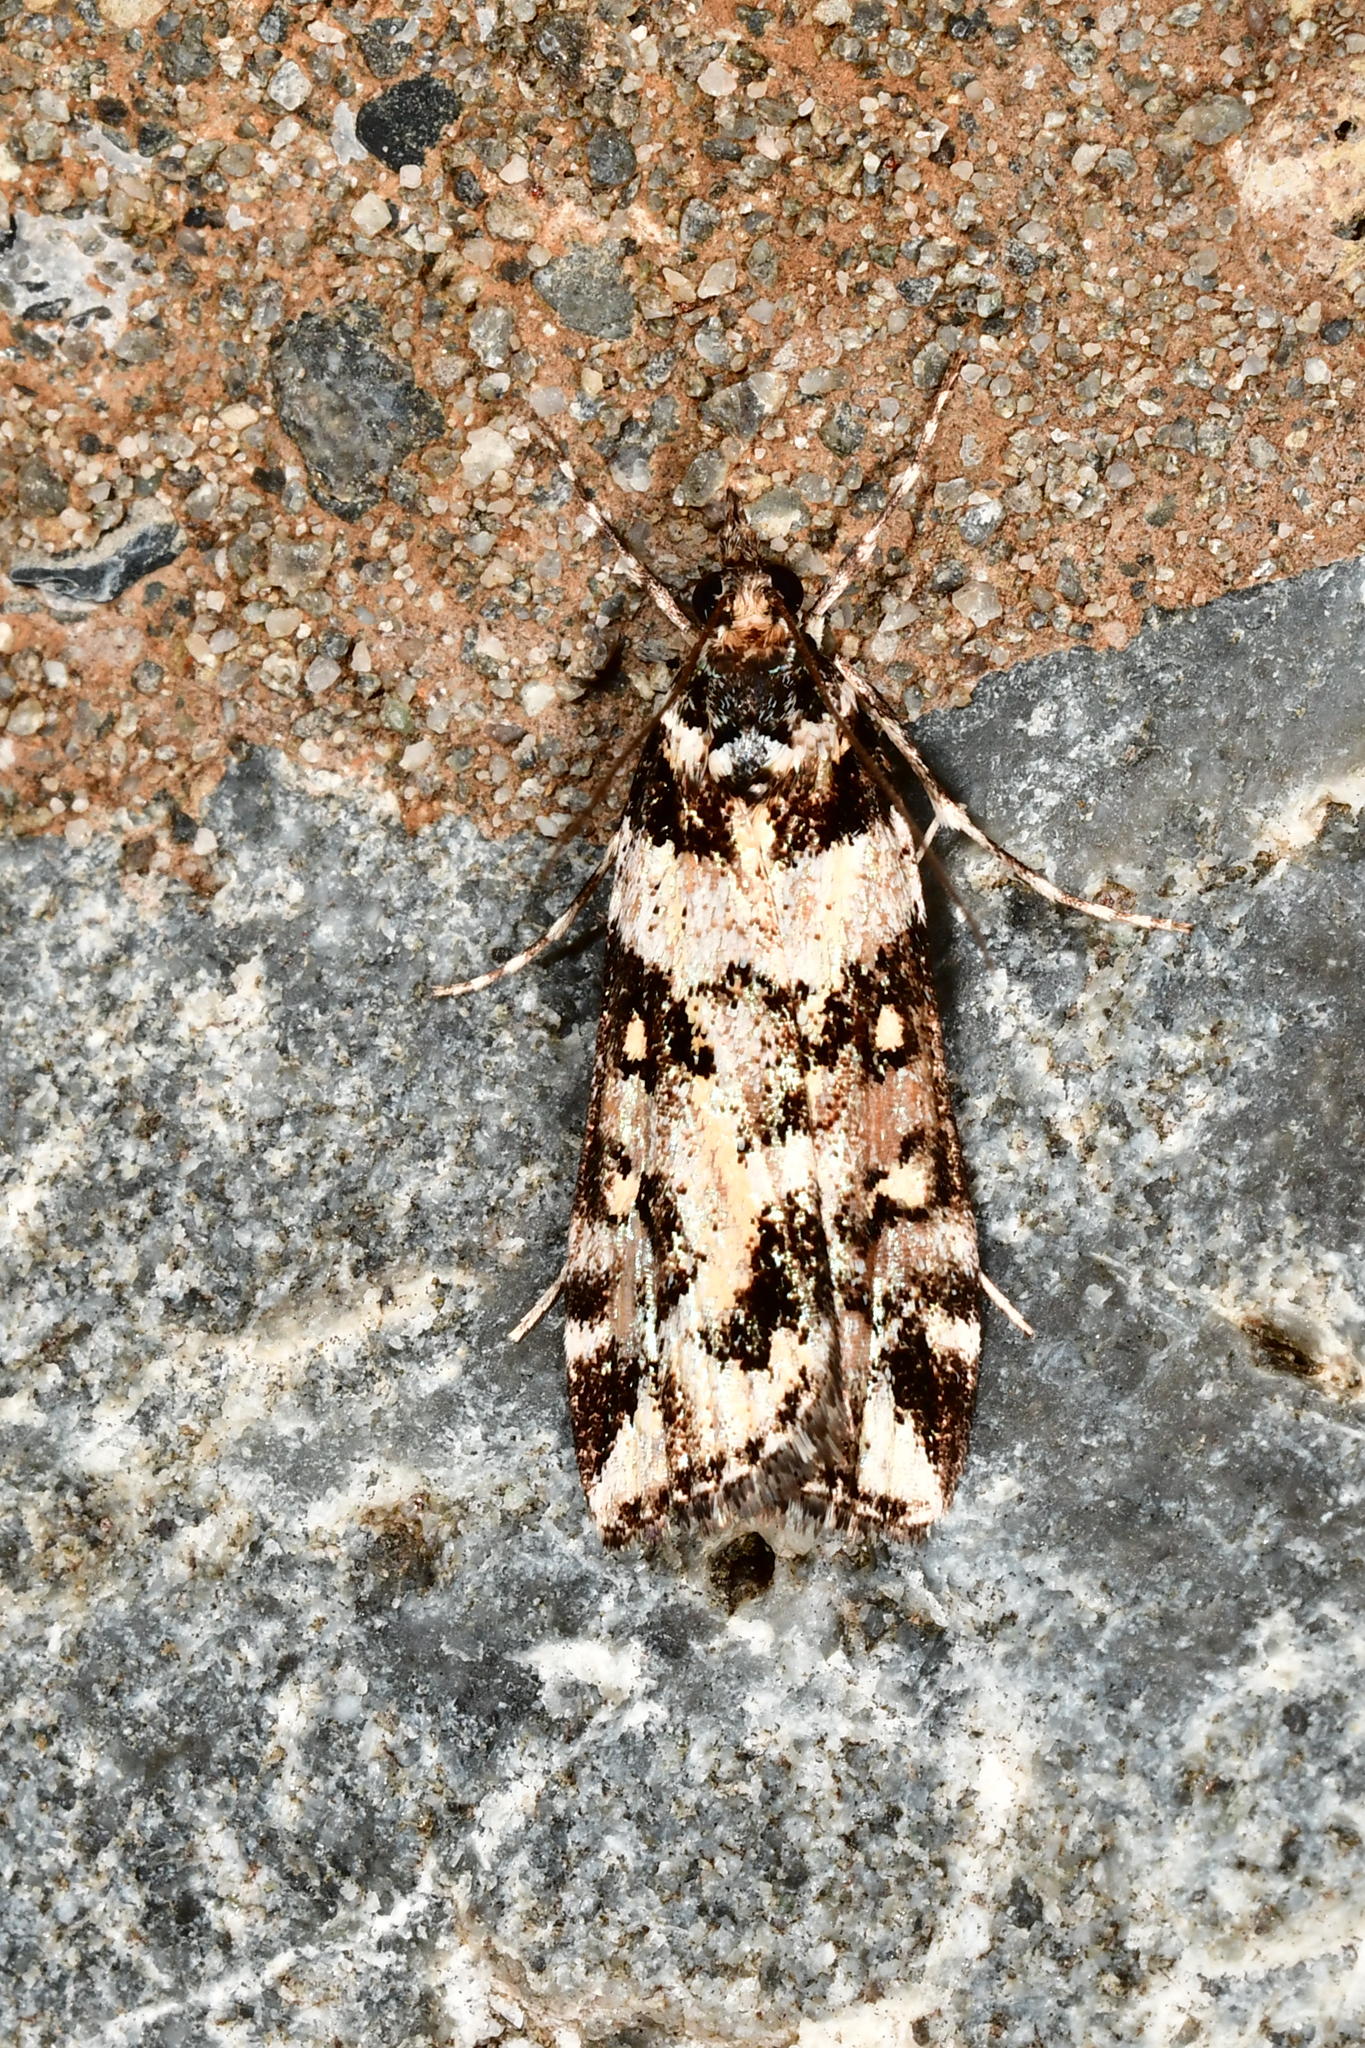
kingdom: Animalia
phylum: Arthropoda
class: Insecta
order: Lepidoptera
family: Crambidae
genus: Eudonia
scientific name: Eudonia diphtheralis
